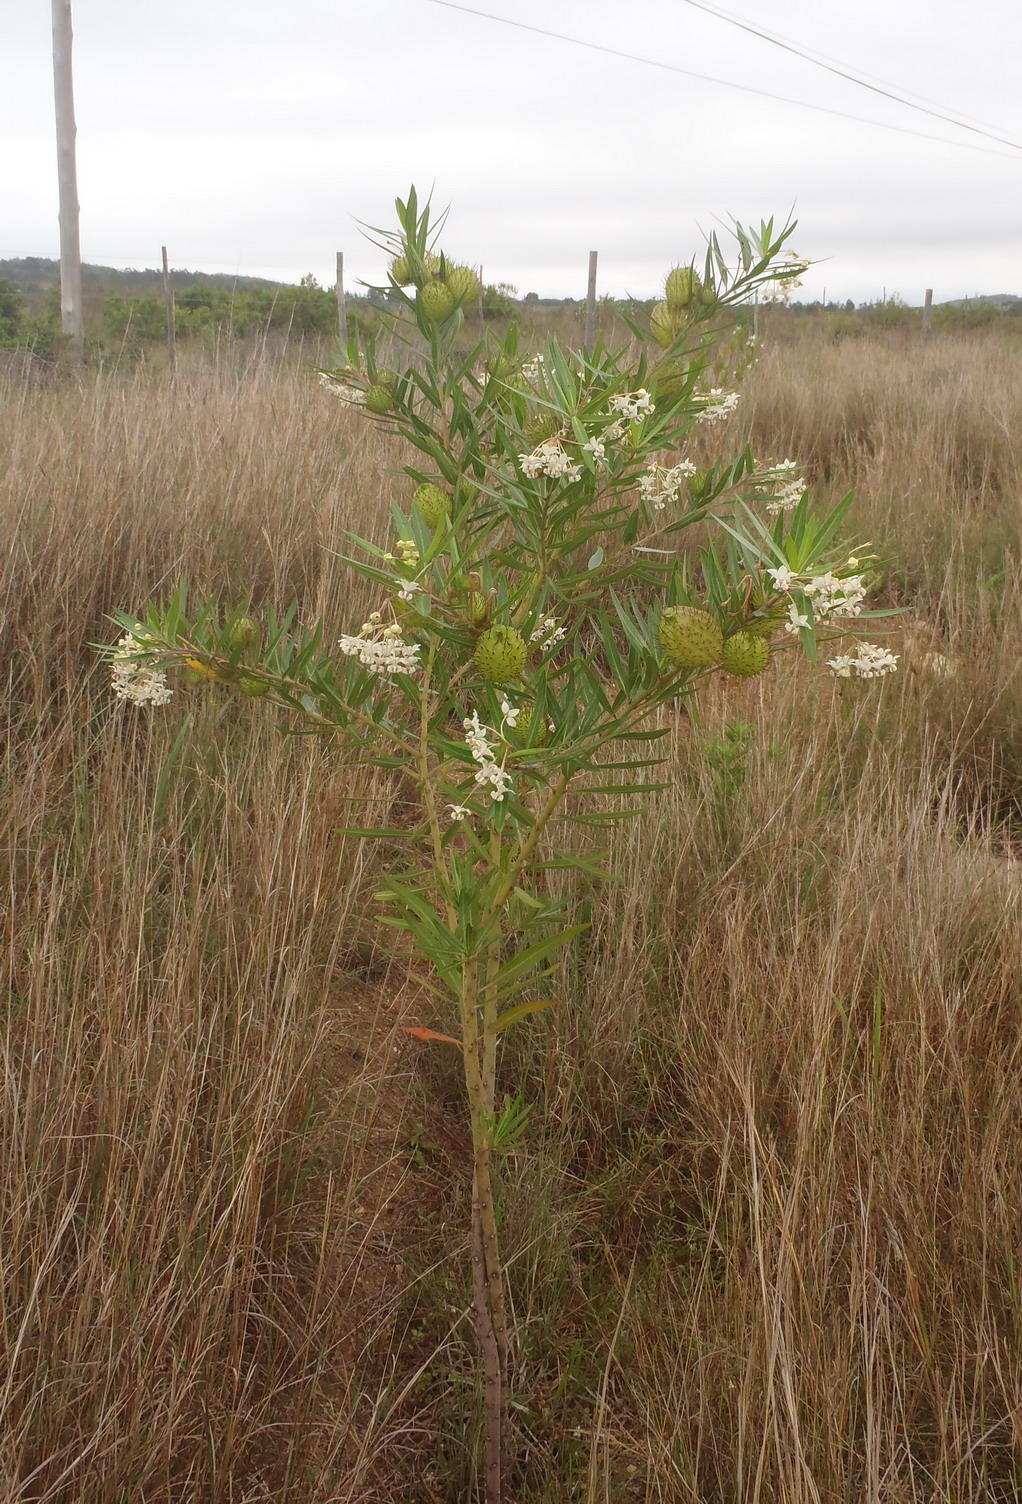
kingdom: Plantae
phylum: Tracheophyta
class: Magnoliopsida
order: Gentianales
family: Apocynaceae
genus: Gomphocarpus
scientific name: Gomphocarpus physocarpus
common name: Balloon cotton bush
